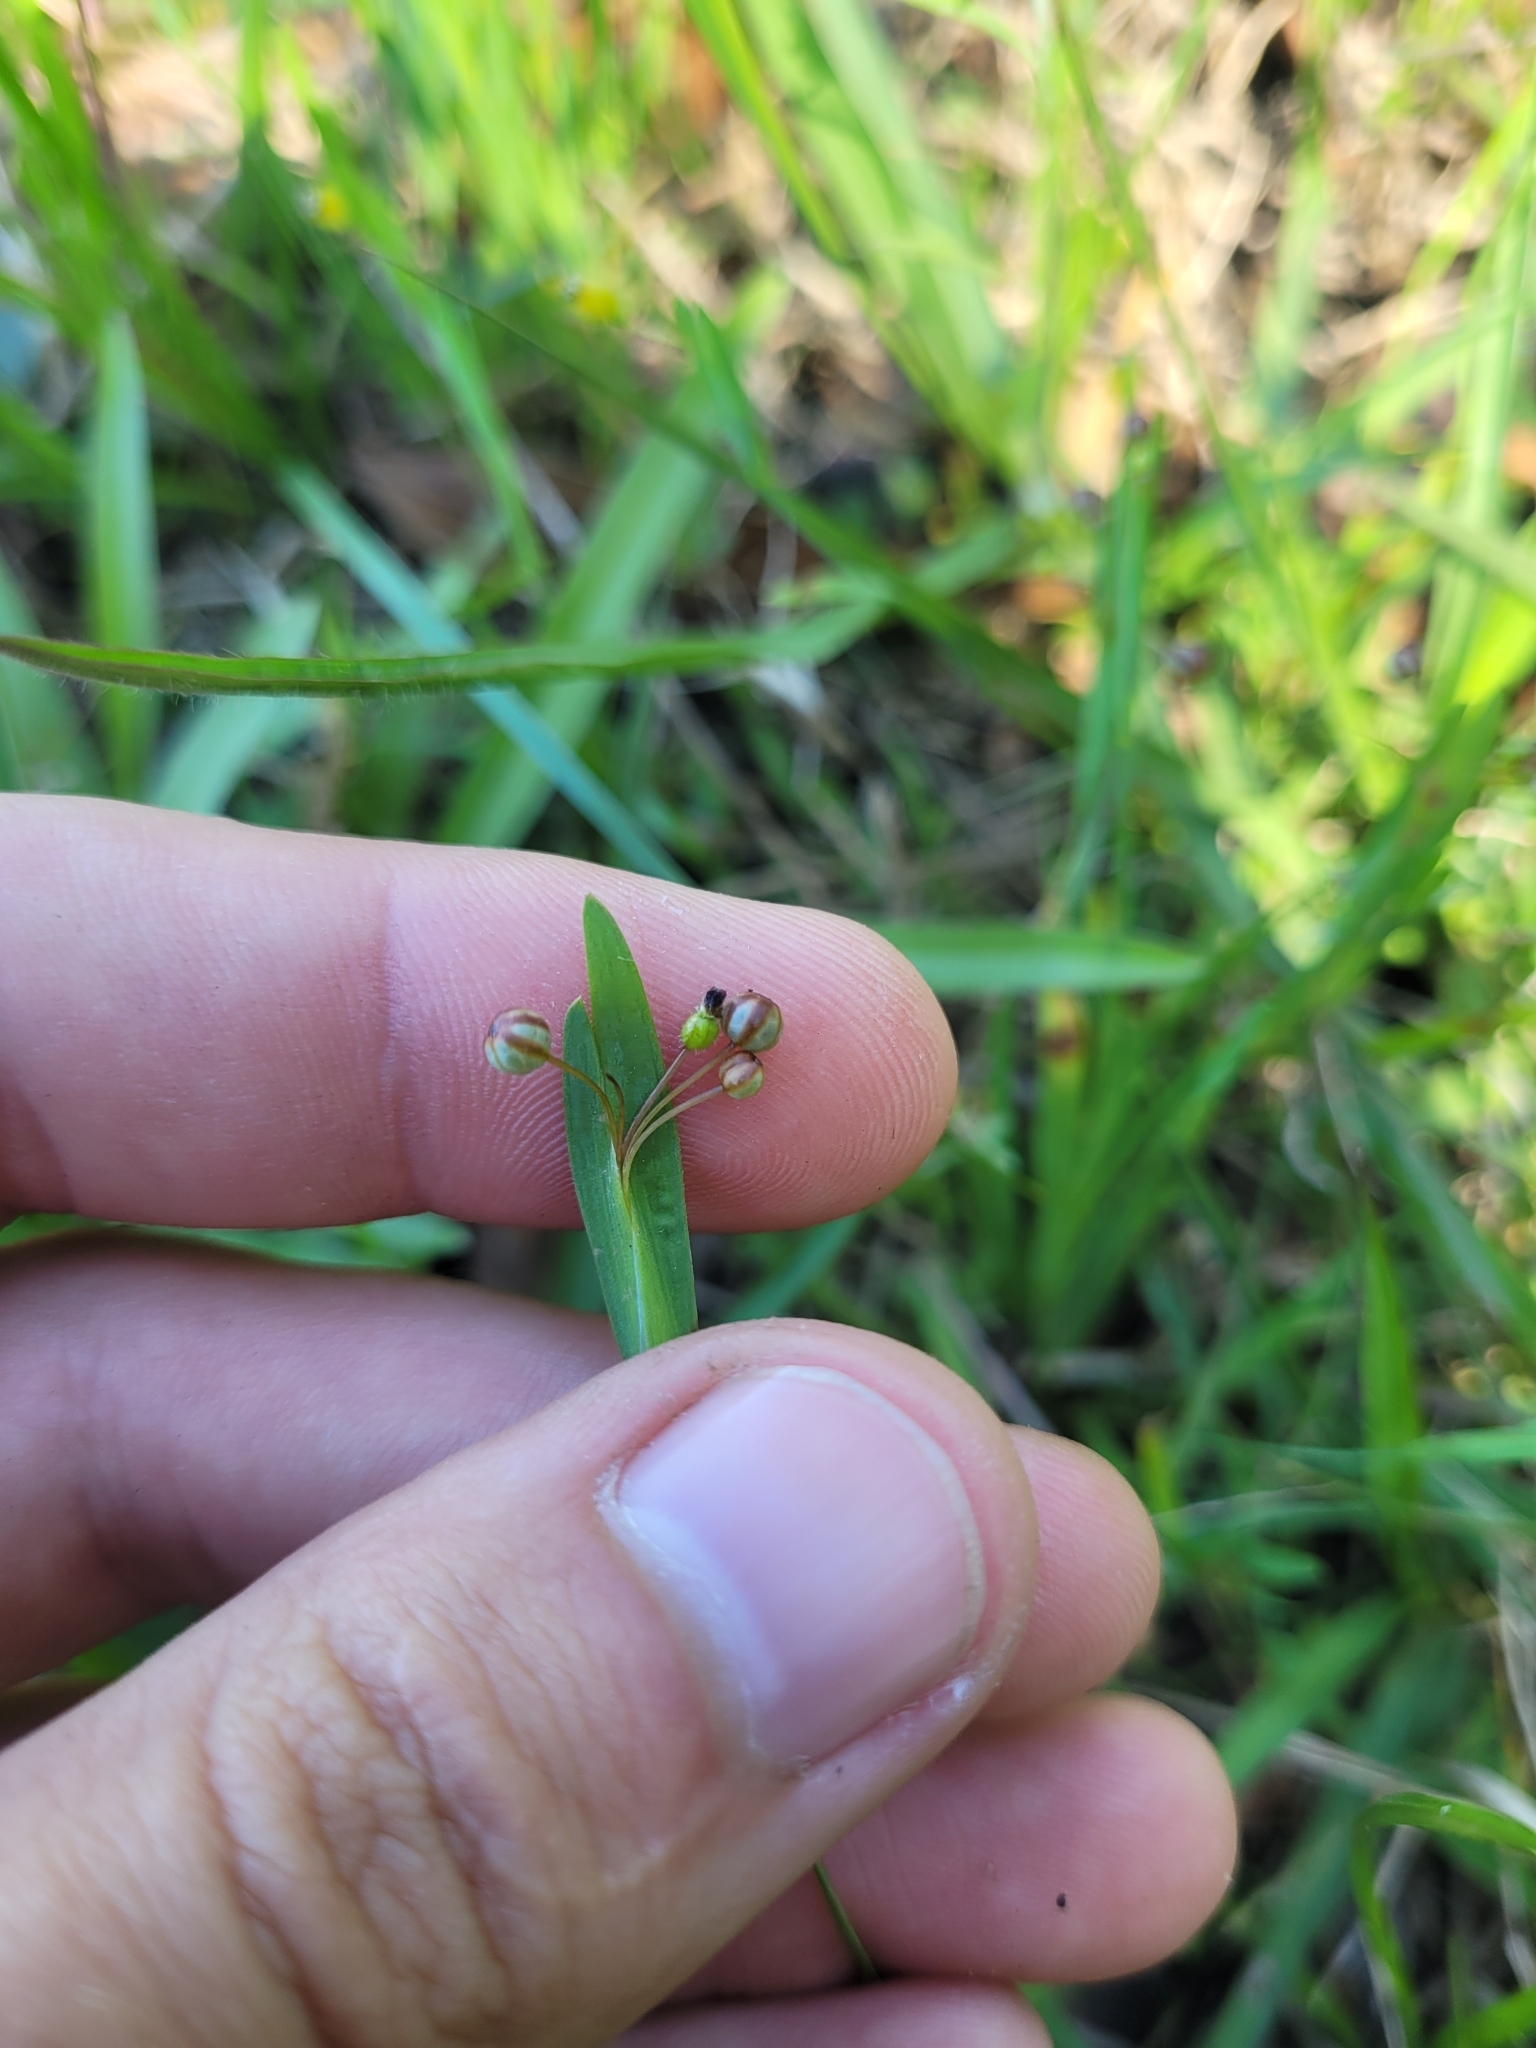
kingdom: Plantae
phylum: Tracheophyta
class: Liliopsida
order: Asparagales
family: Iridaceae
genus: Sisyrinchium
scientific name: Sisyrinchium micranthum
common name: Bermuda pigroot
